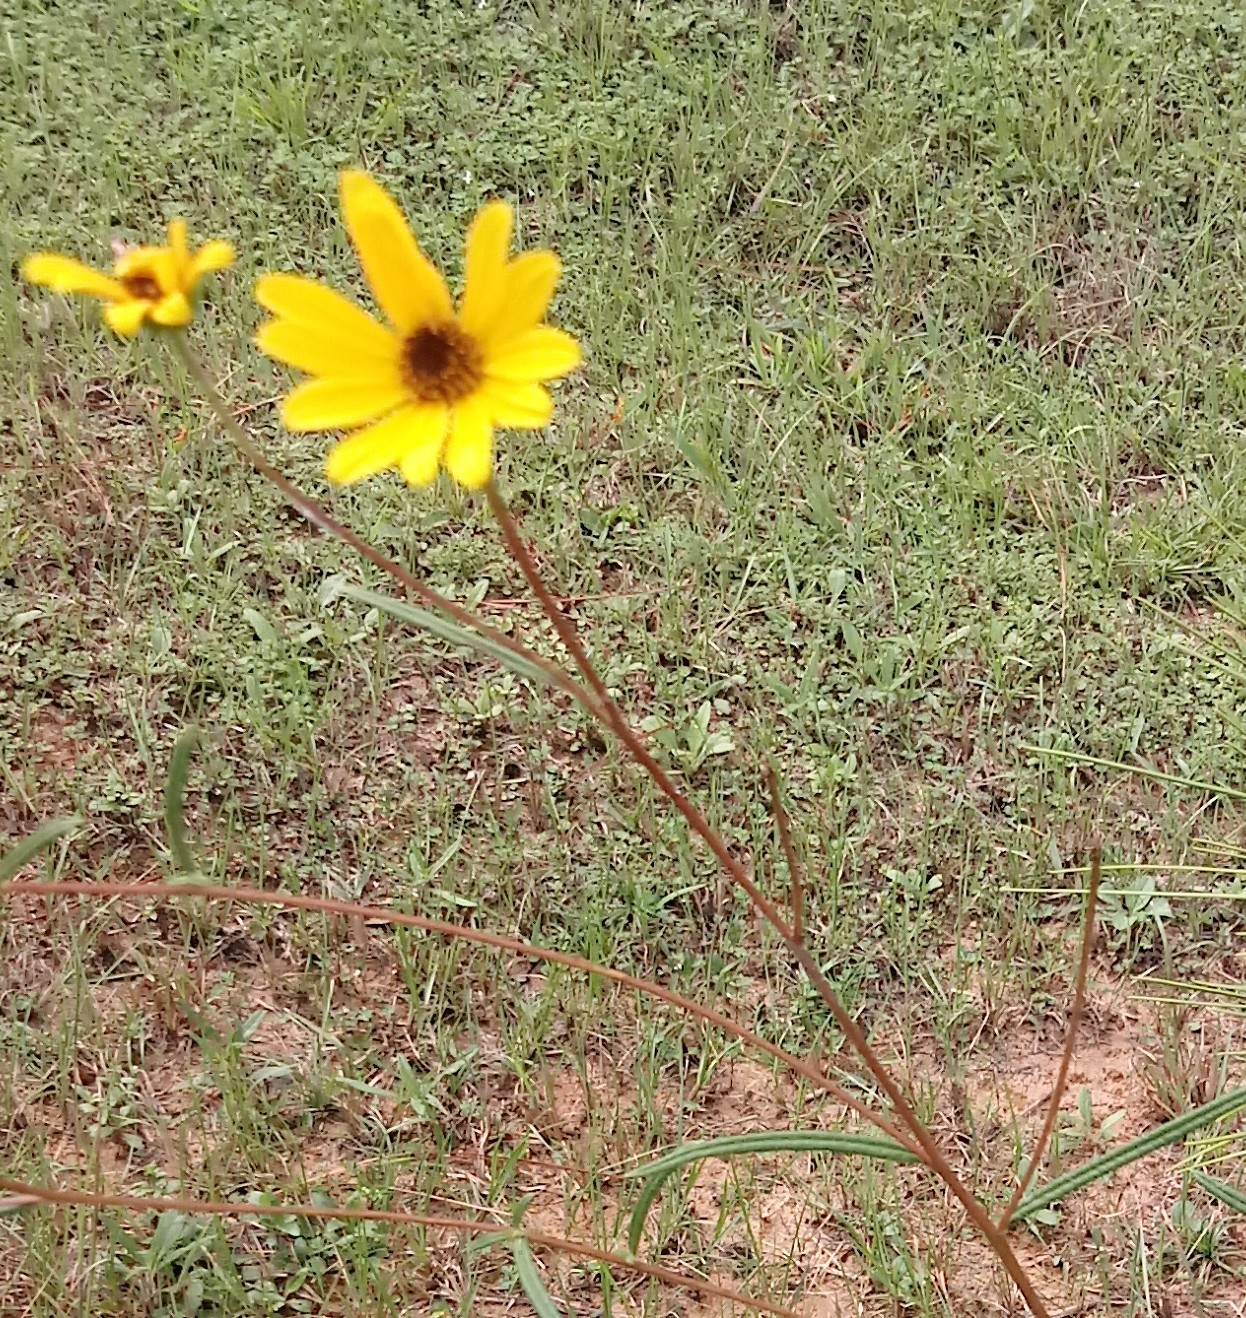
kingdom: Plantae
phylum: Tracheophyta
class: Magnoliopsida
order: Asterales
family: Asteraceae
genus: Helianthus
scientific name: Helianthus angustifolius
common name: Swamp sunflower
